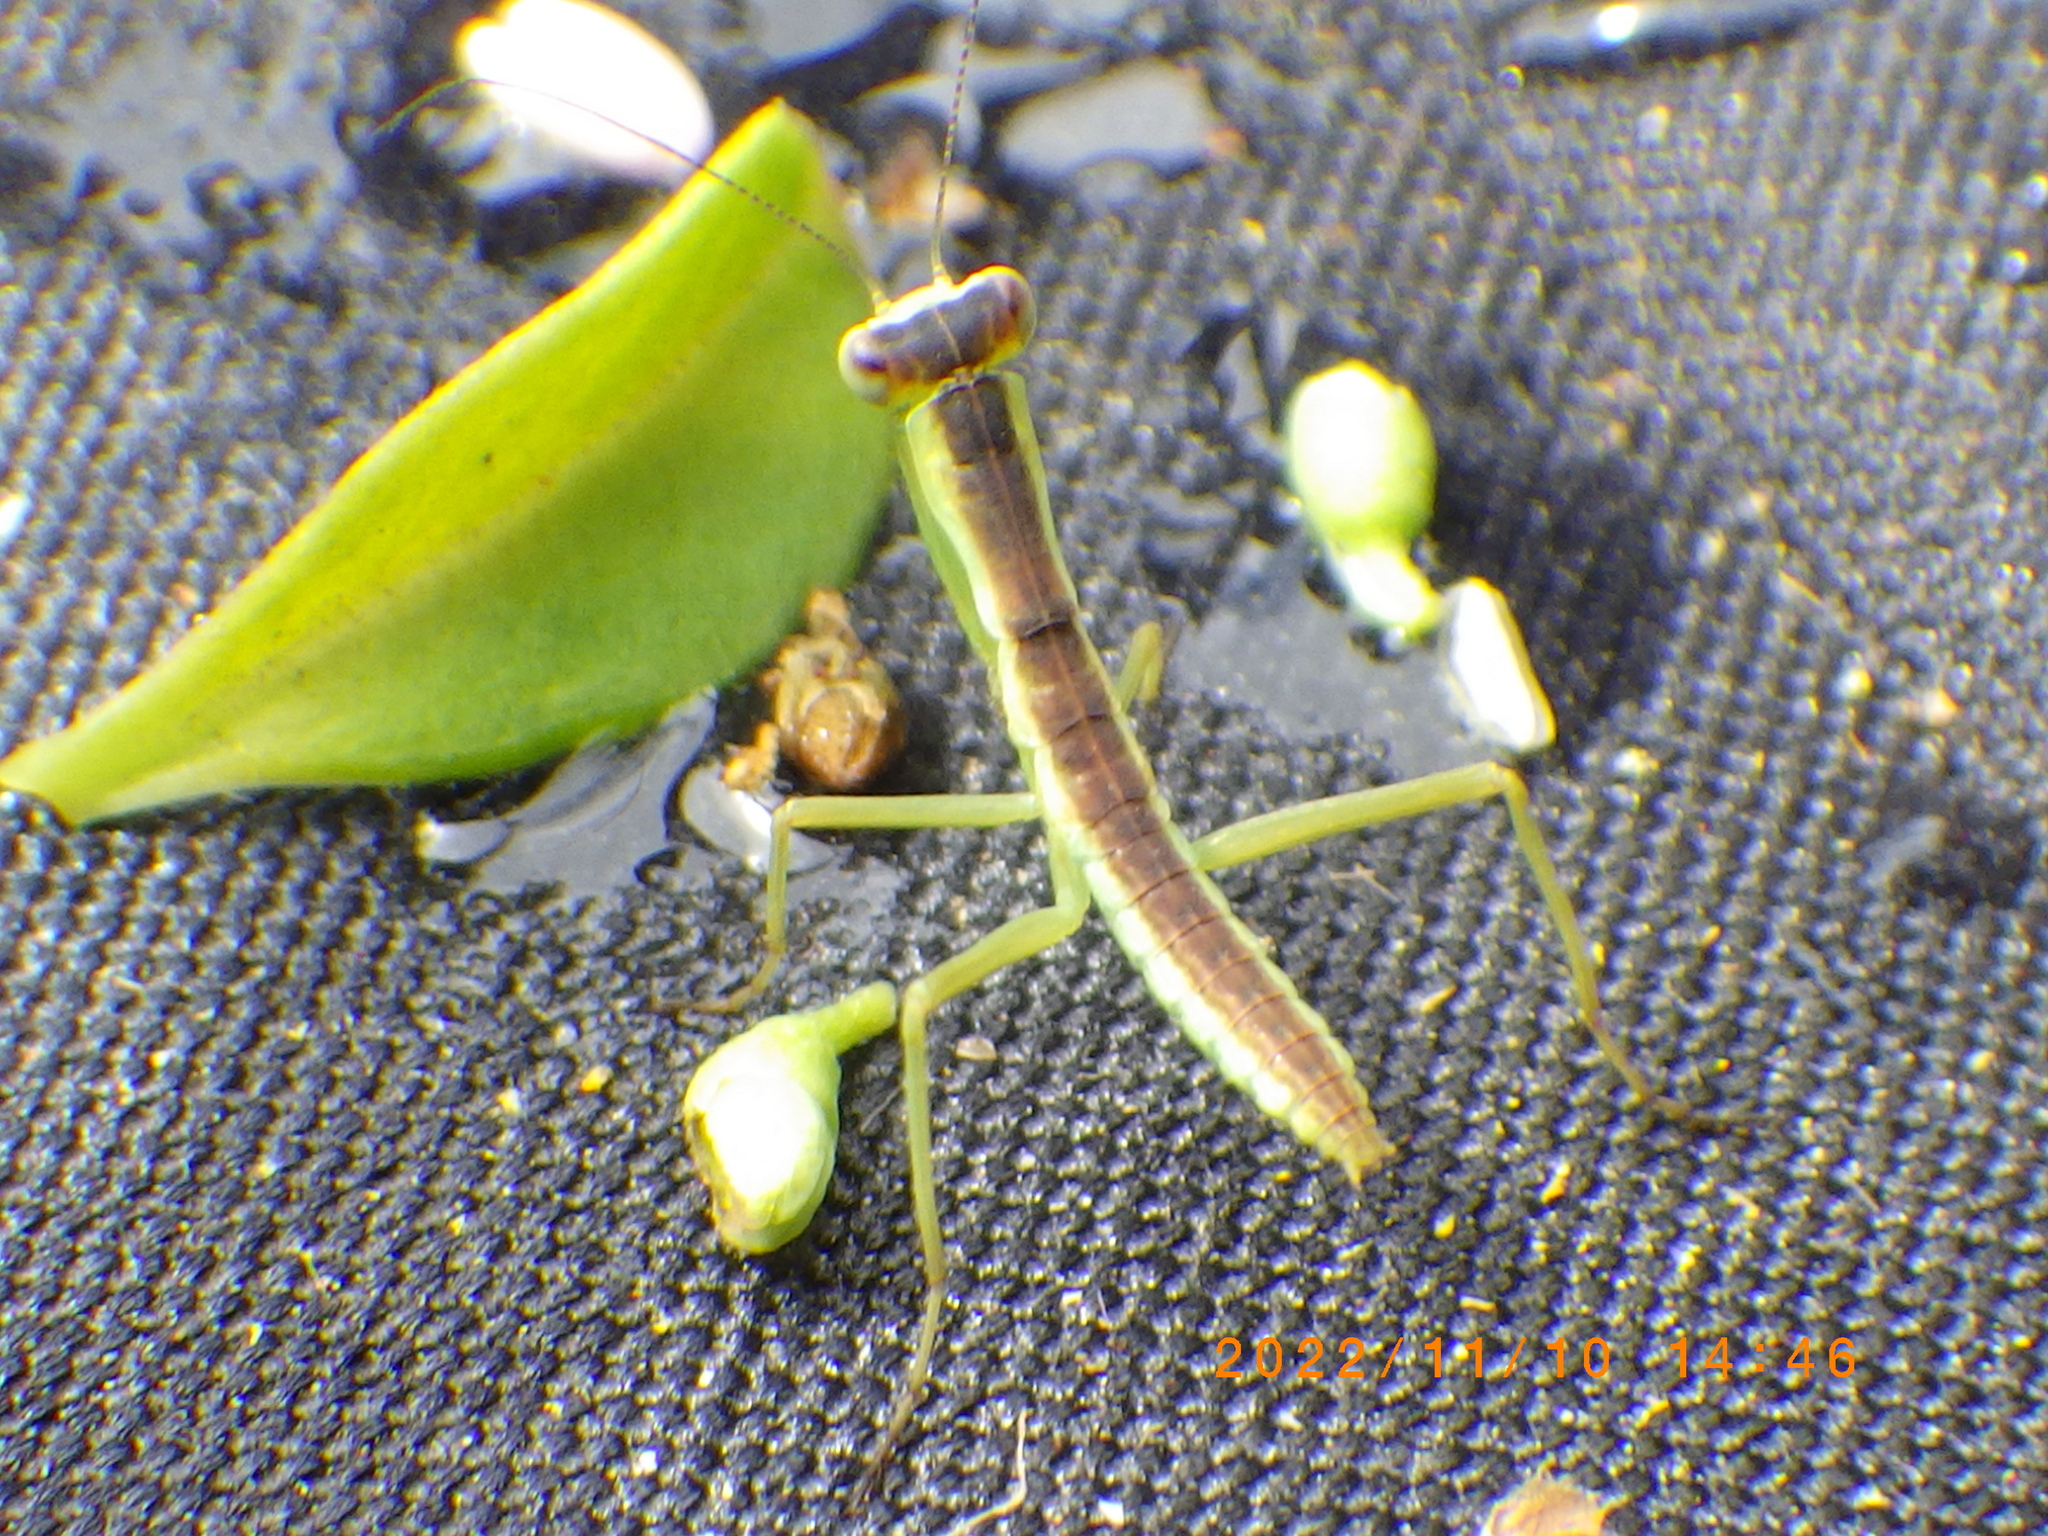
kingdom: Animalia
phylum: Arthropoda
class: Insecta
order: Mantodea
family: Mantidae
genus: Orthodera
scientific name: Orthodera novaezealandiae
